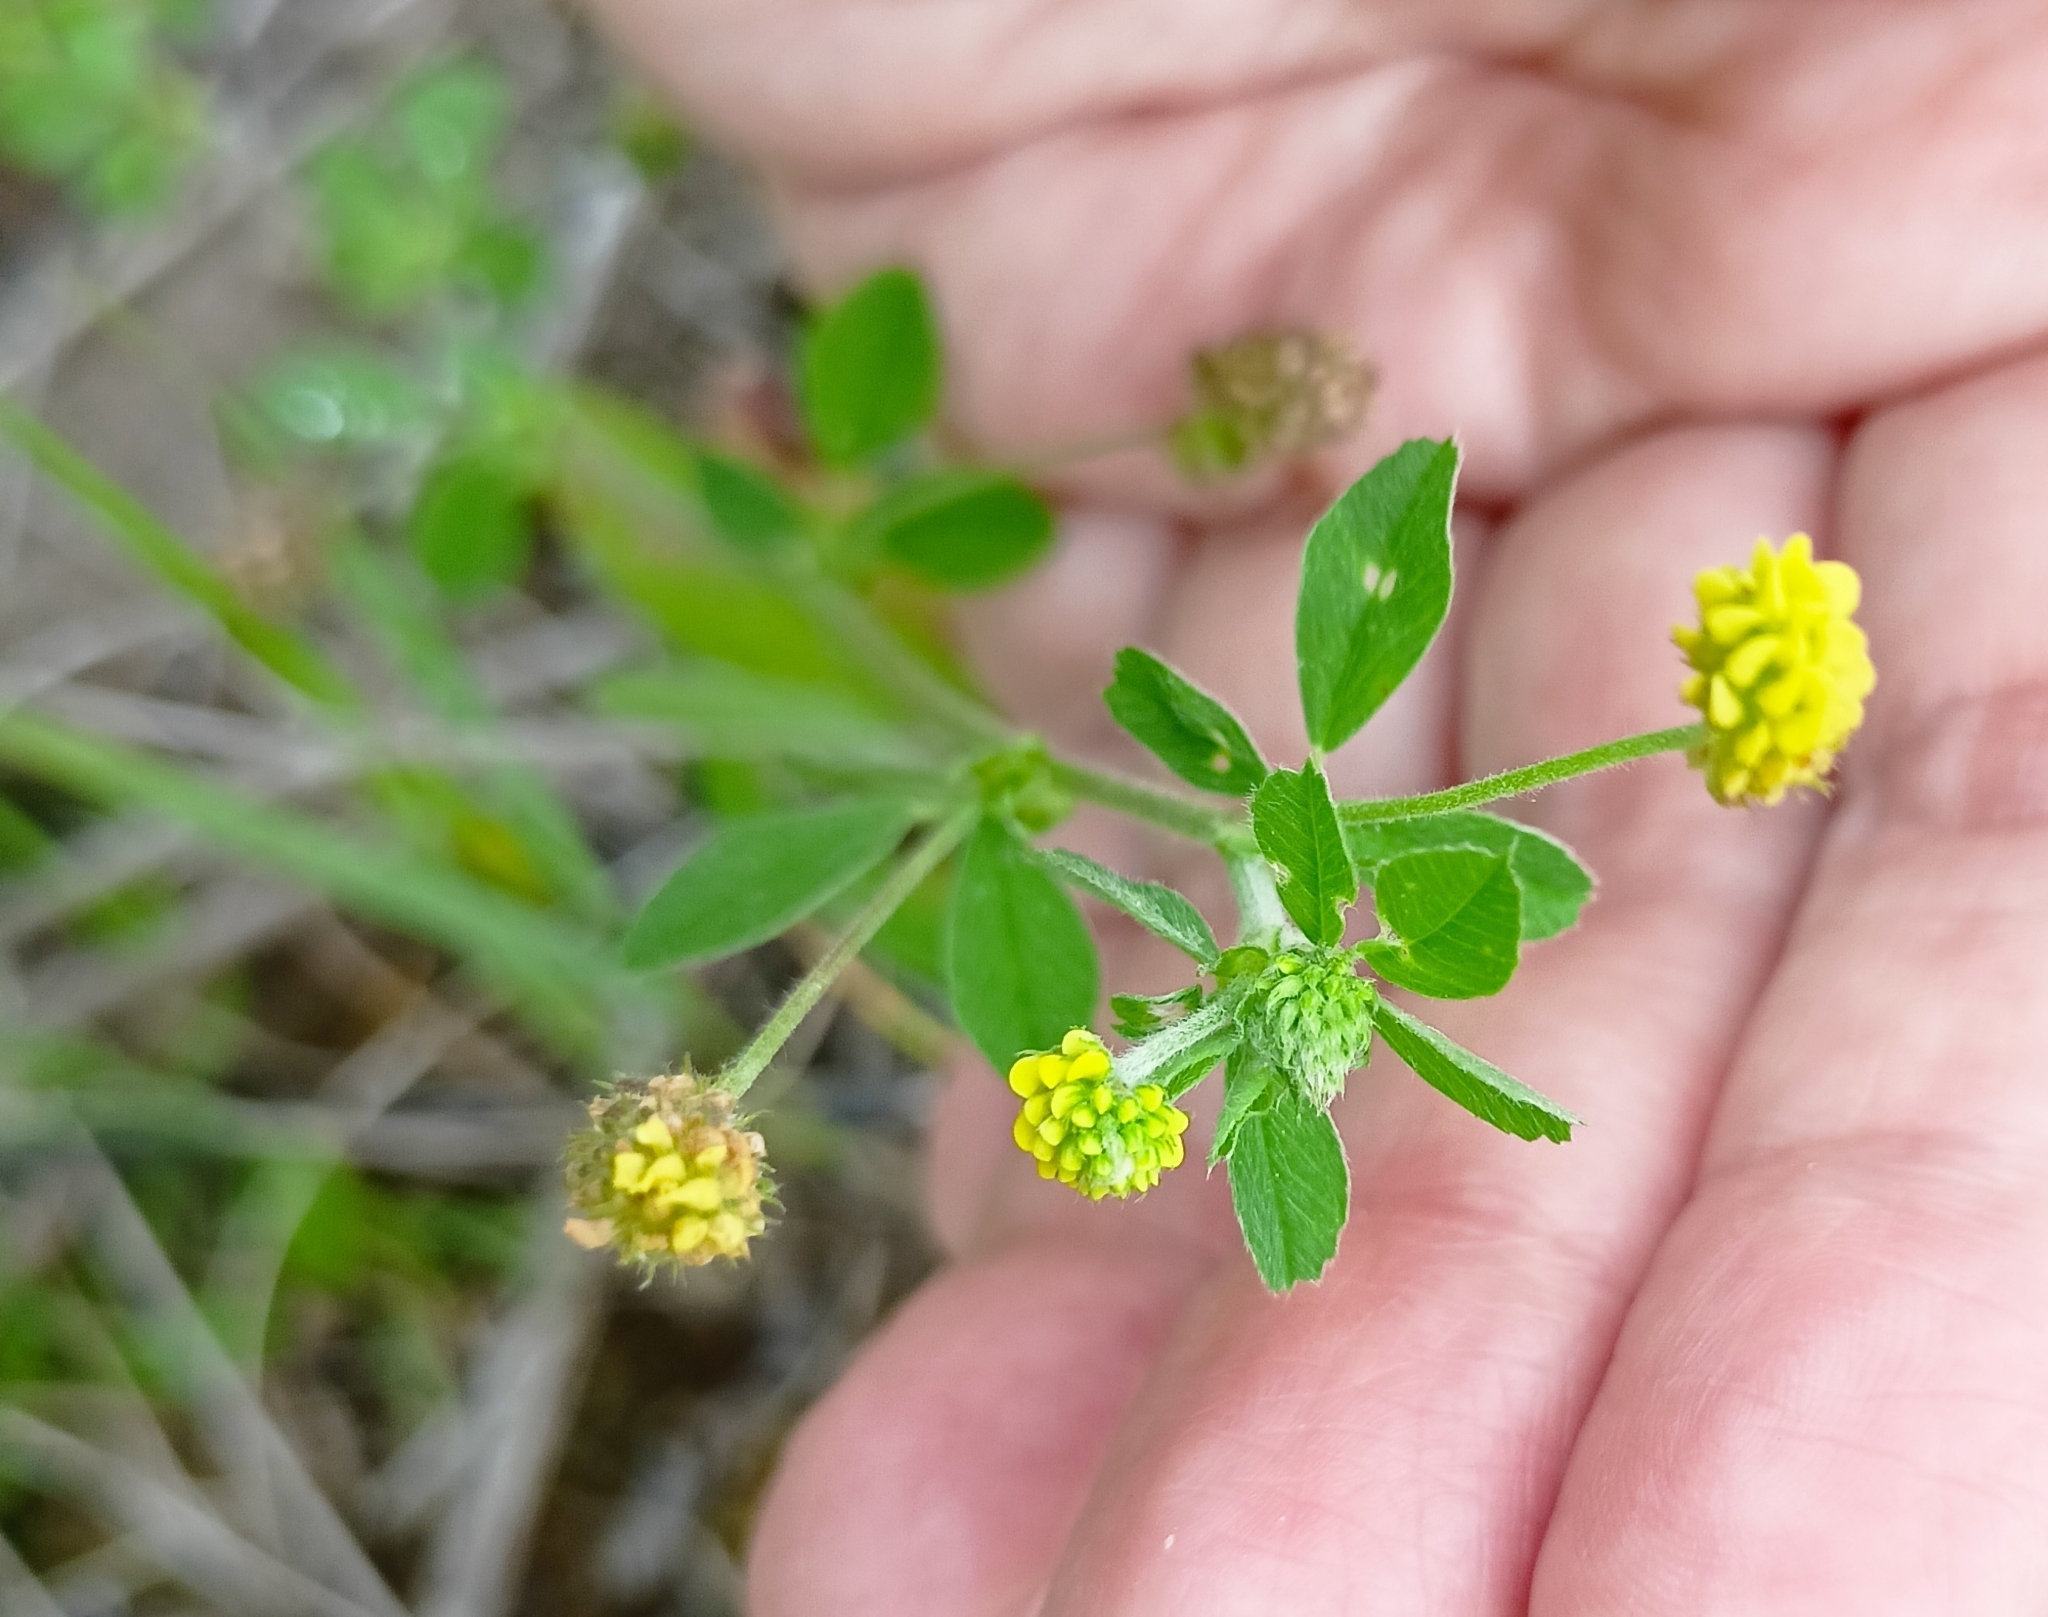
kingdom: Plantae
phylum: Tracheophyta
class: Magnoliopsida
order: Fabales
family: Fabaceae
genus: Medicago
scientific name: Medicago lupulina
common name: Black medick
